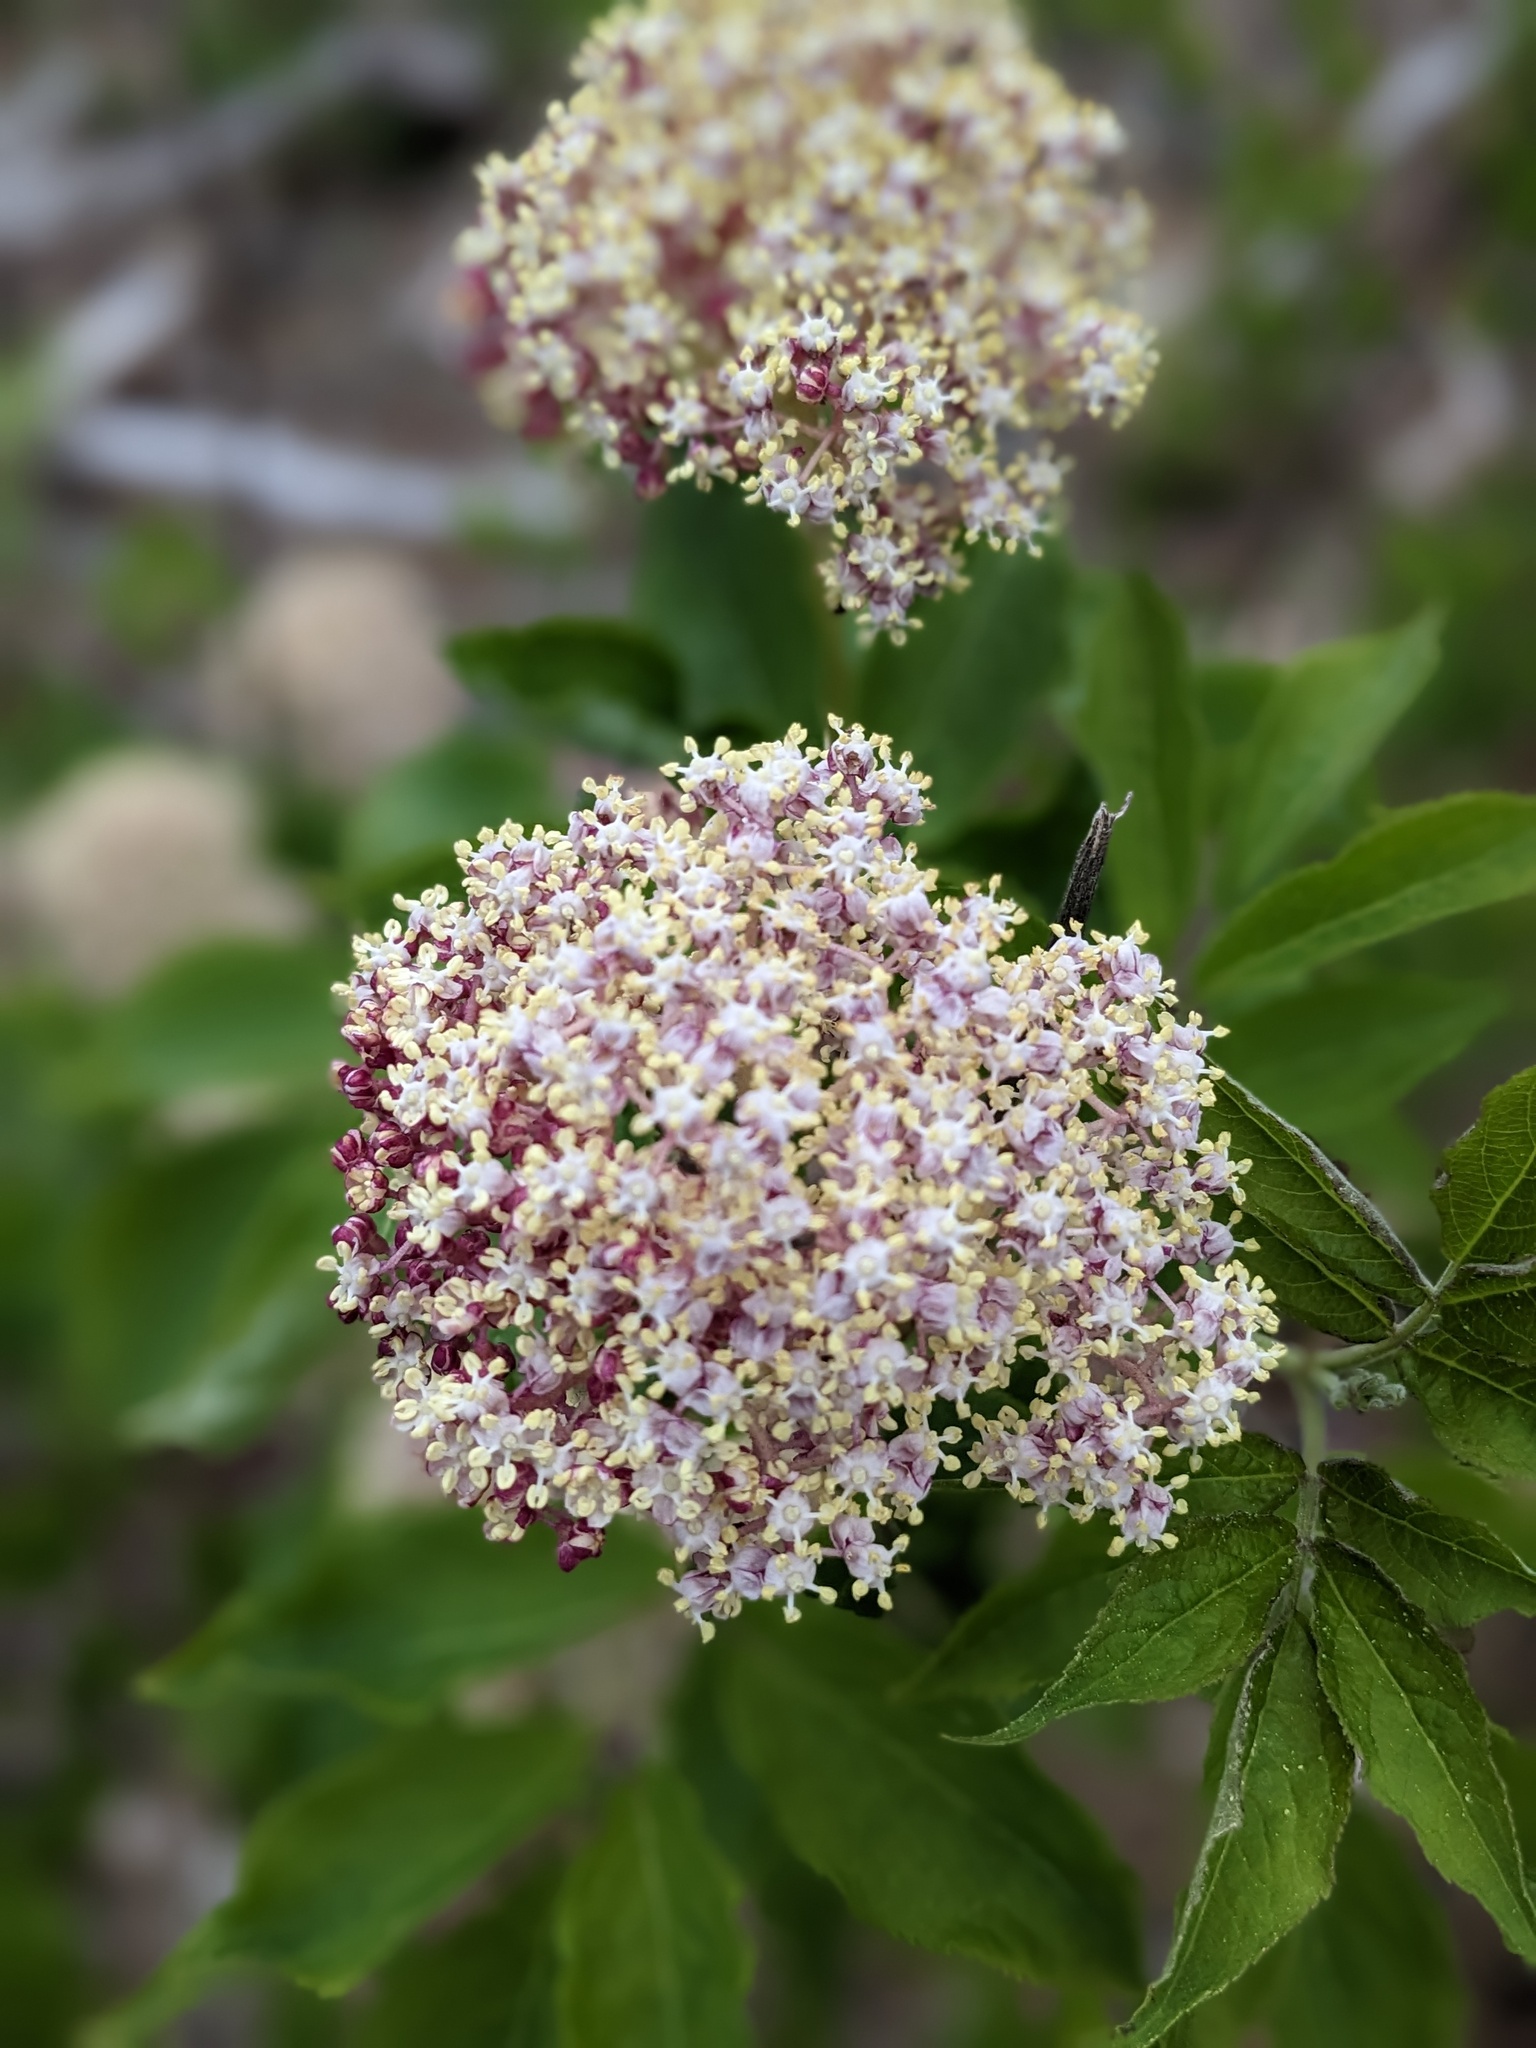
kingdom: Plantae
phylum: Tracheophyta
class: Magnoliopsida
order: Dipsacales
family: Viburnaceae
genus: Sambucus
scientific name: Sambucus racemosa
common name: Red-berried elder
